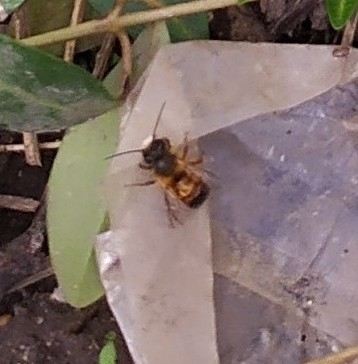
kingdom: Animalia
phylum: Arthropoda
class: Insecta
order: Hymenoptera
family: Megachilidae
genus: Osmia
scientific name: Osmia bicornis
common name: Red mason bee
